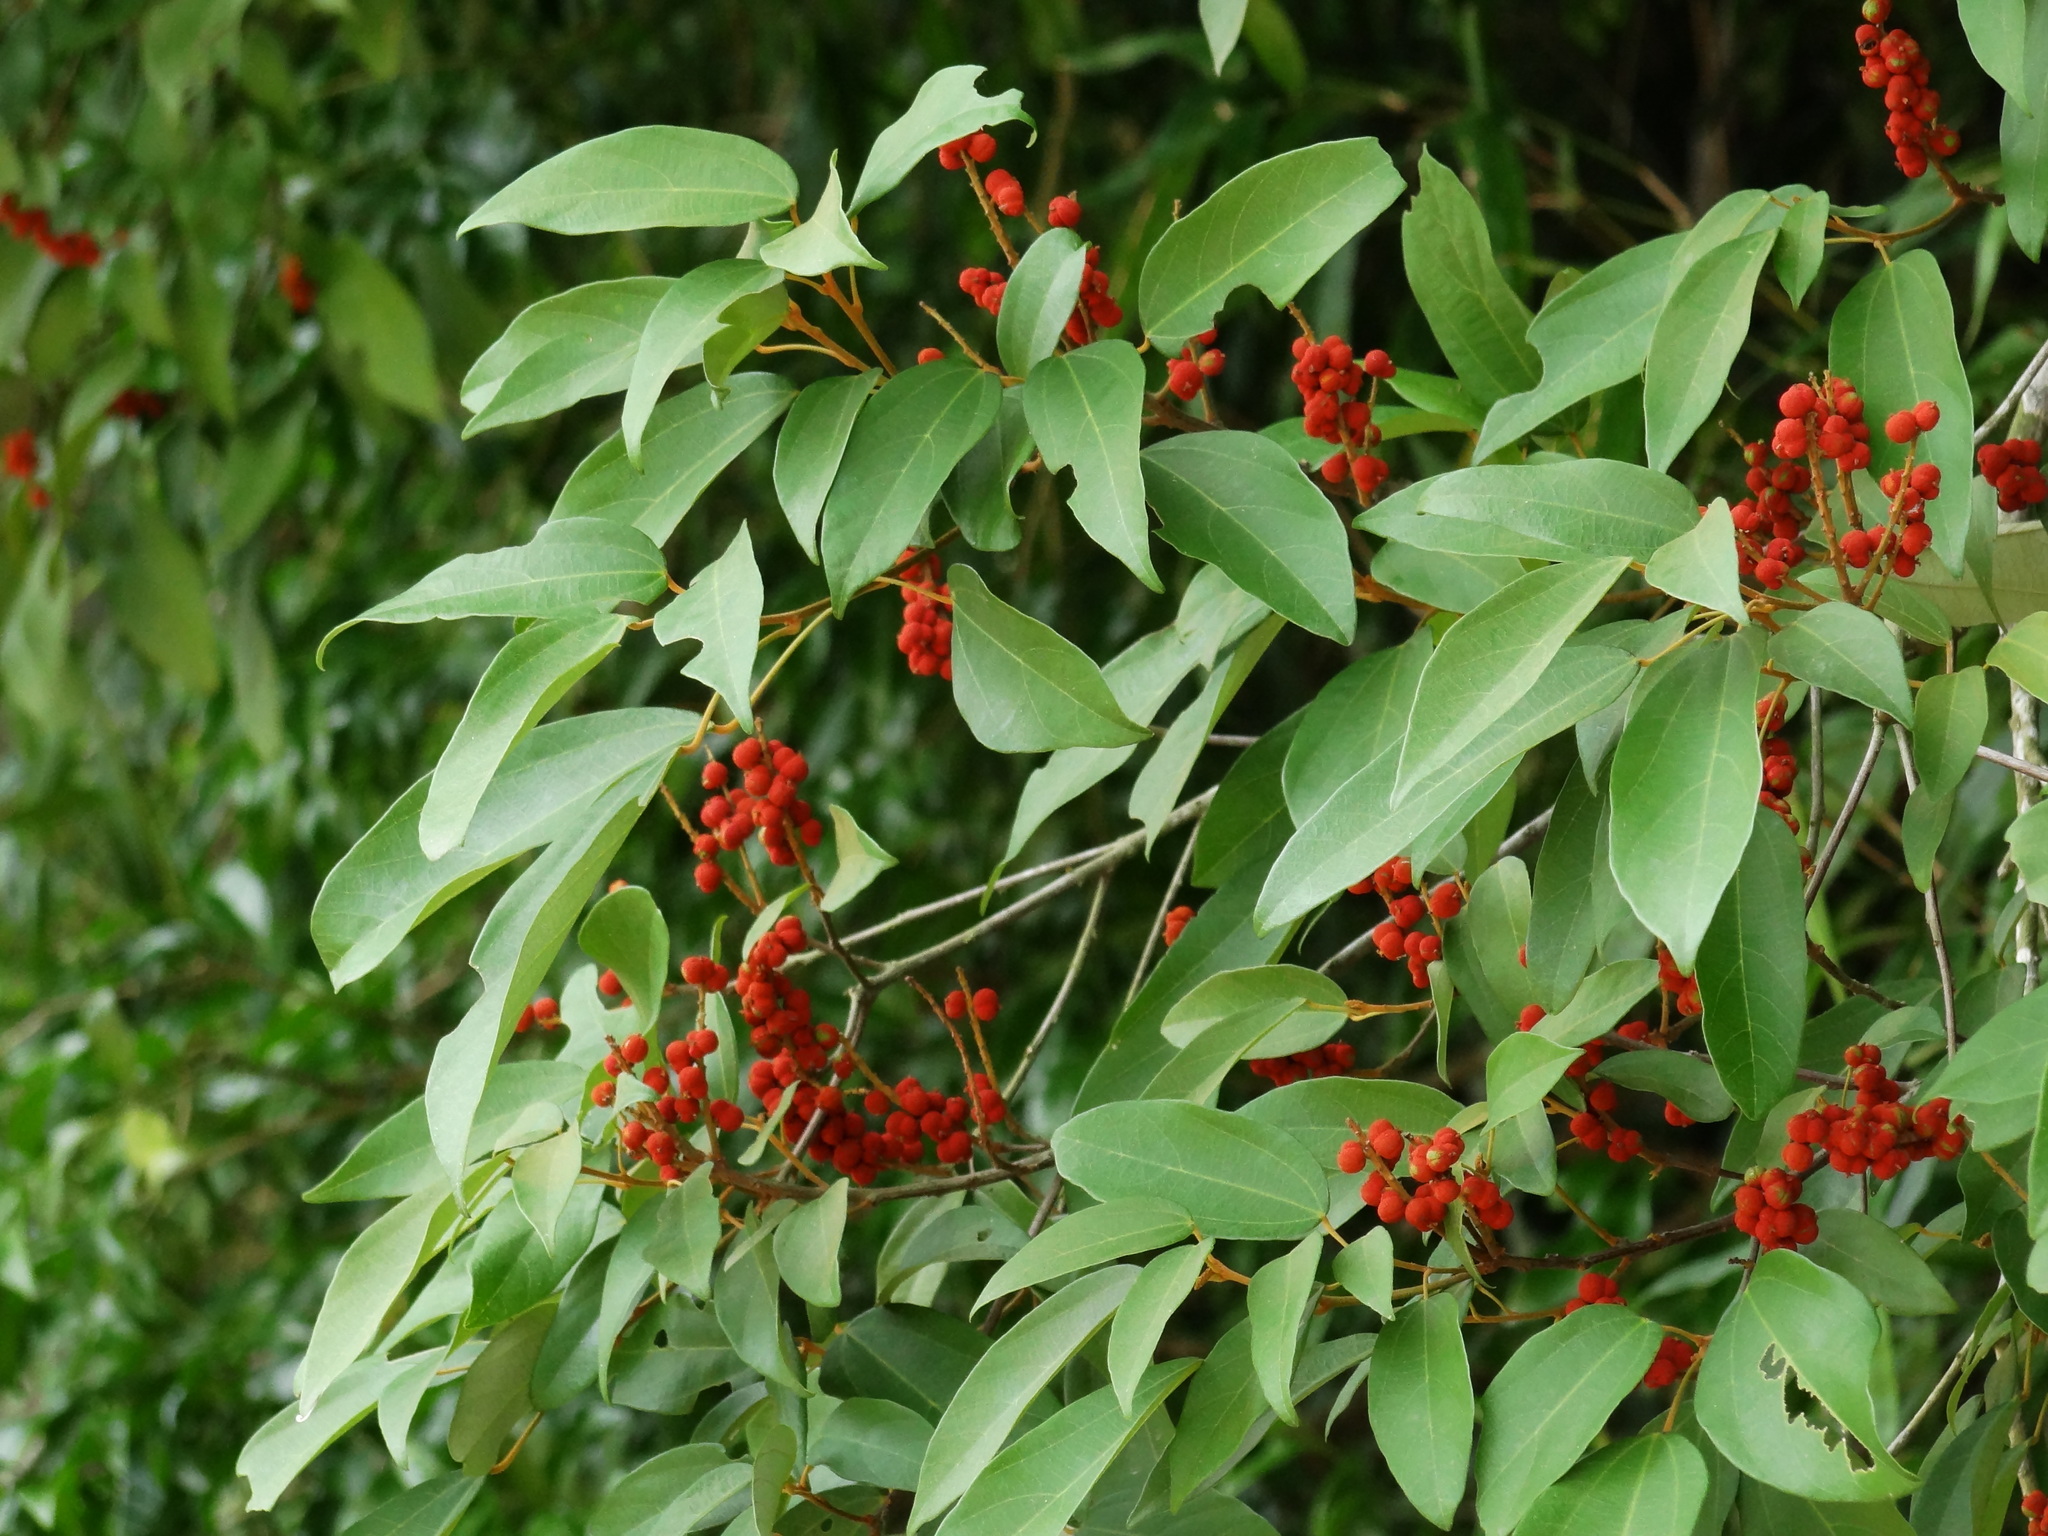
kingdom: Plantae
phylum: Tracheophyta
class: Magnoliopsida
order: Malpighiales
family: Euphorbiaceae
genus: Mallotus
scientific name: Mallotus philippensis
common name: Kamala tree
